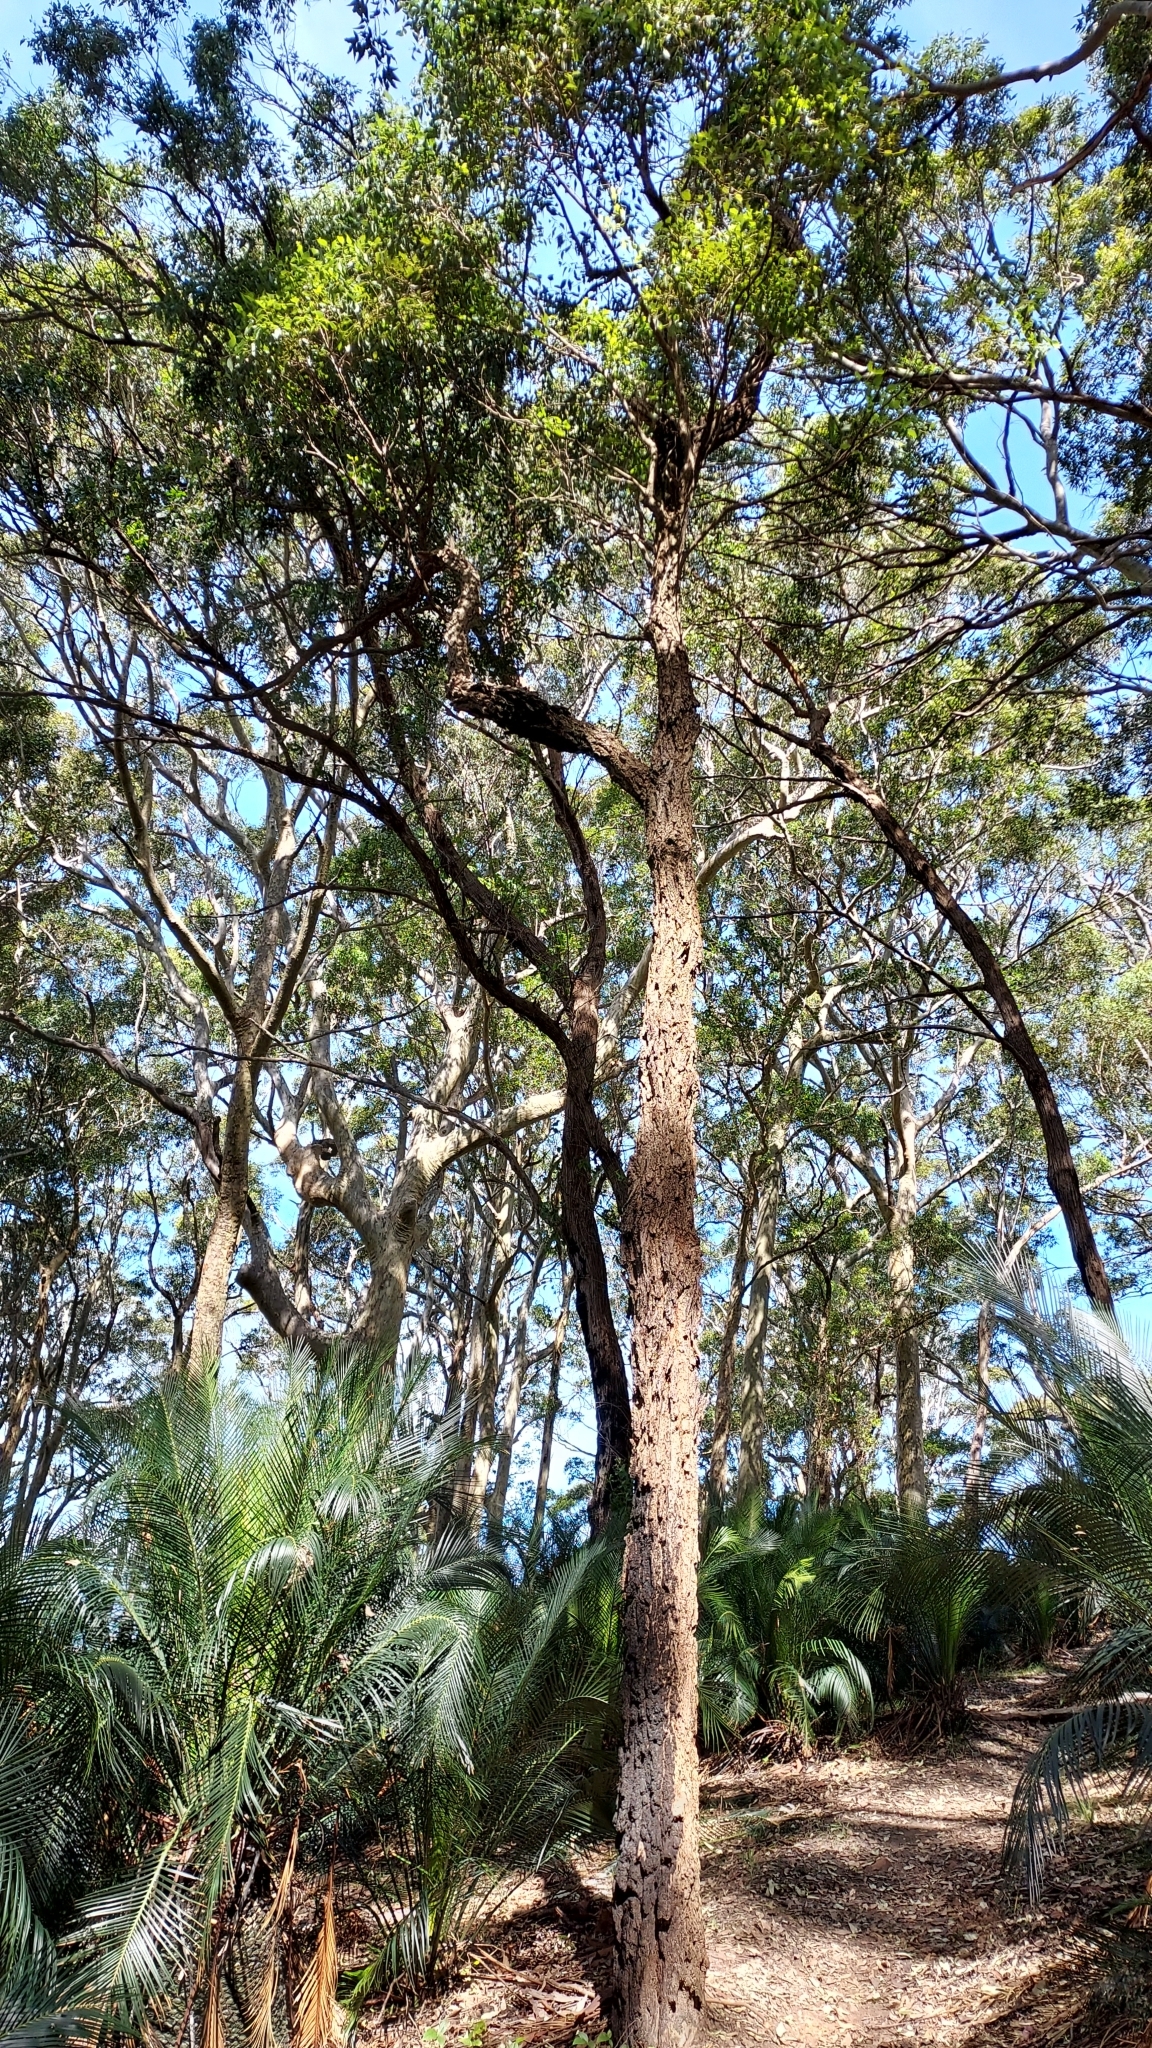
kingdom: Plantae
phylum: Tracheophyta
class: Magnoliopsida
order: Myrtales
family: Myrtaceae
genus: Eucalyptus
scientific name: Eucalyptus paniculata
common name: Gray ironbark
